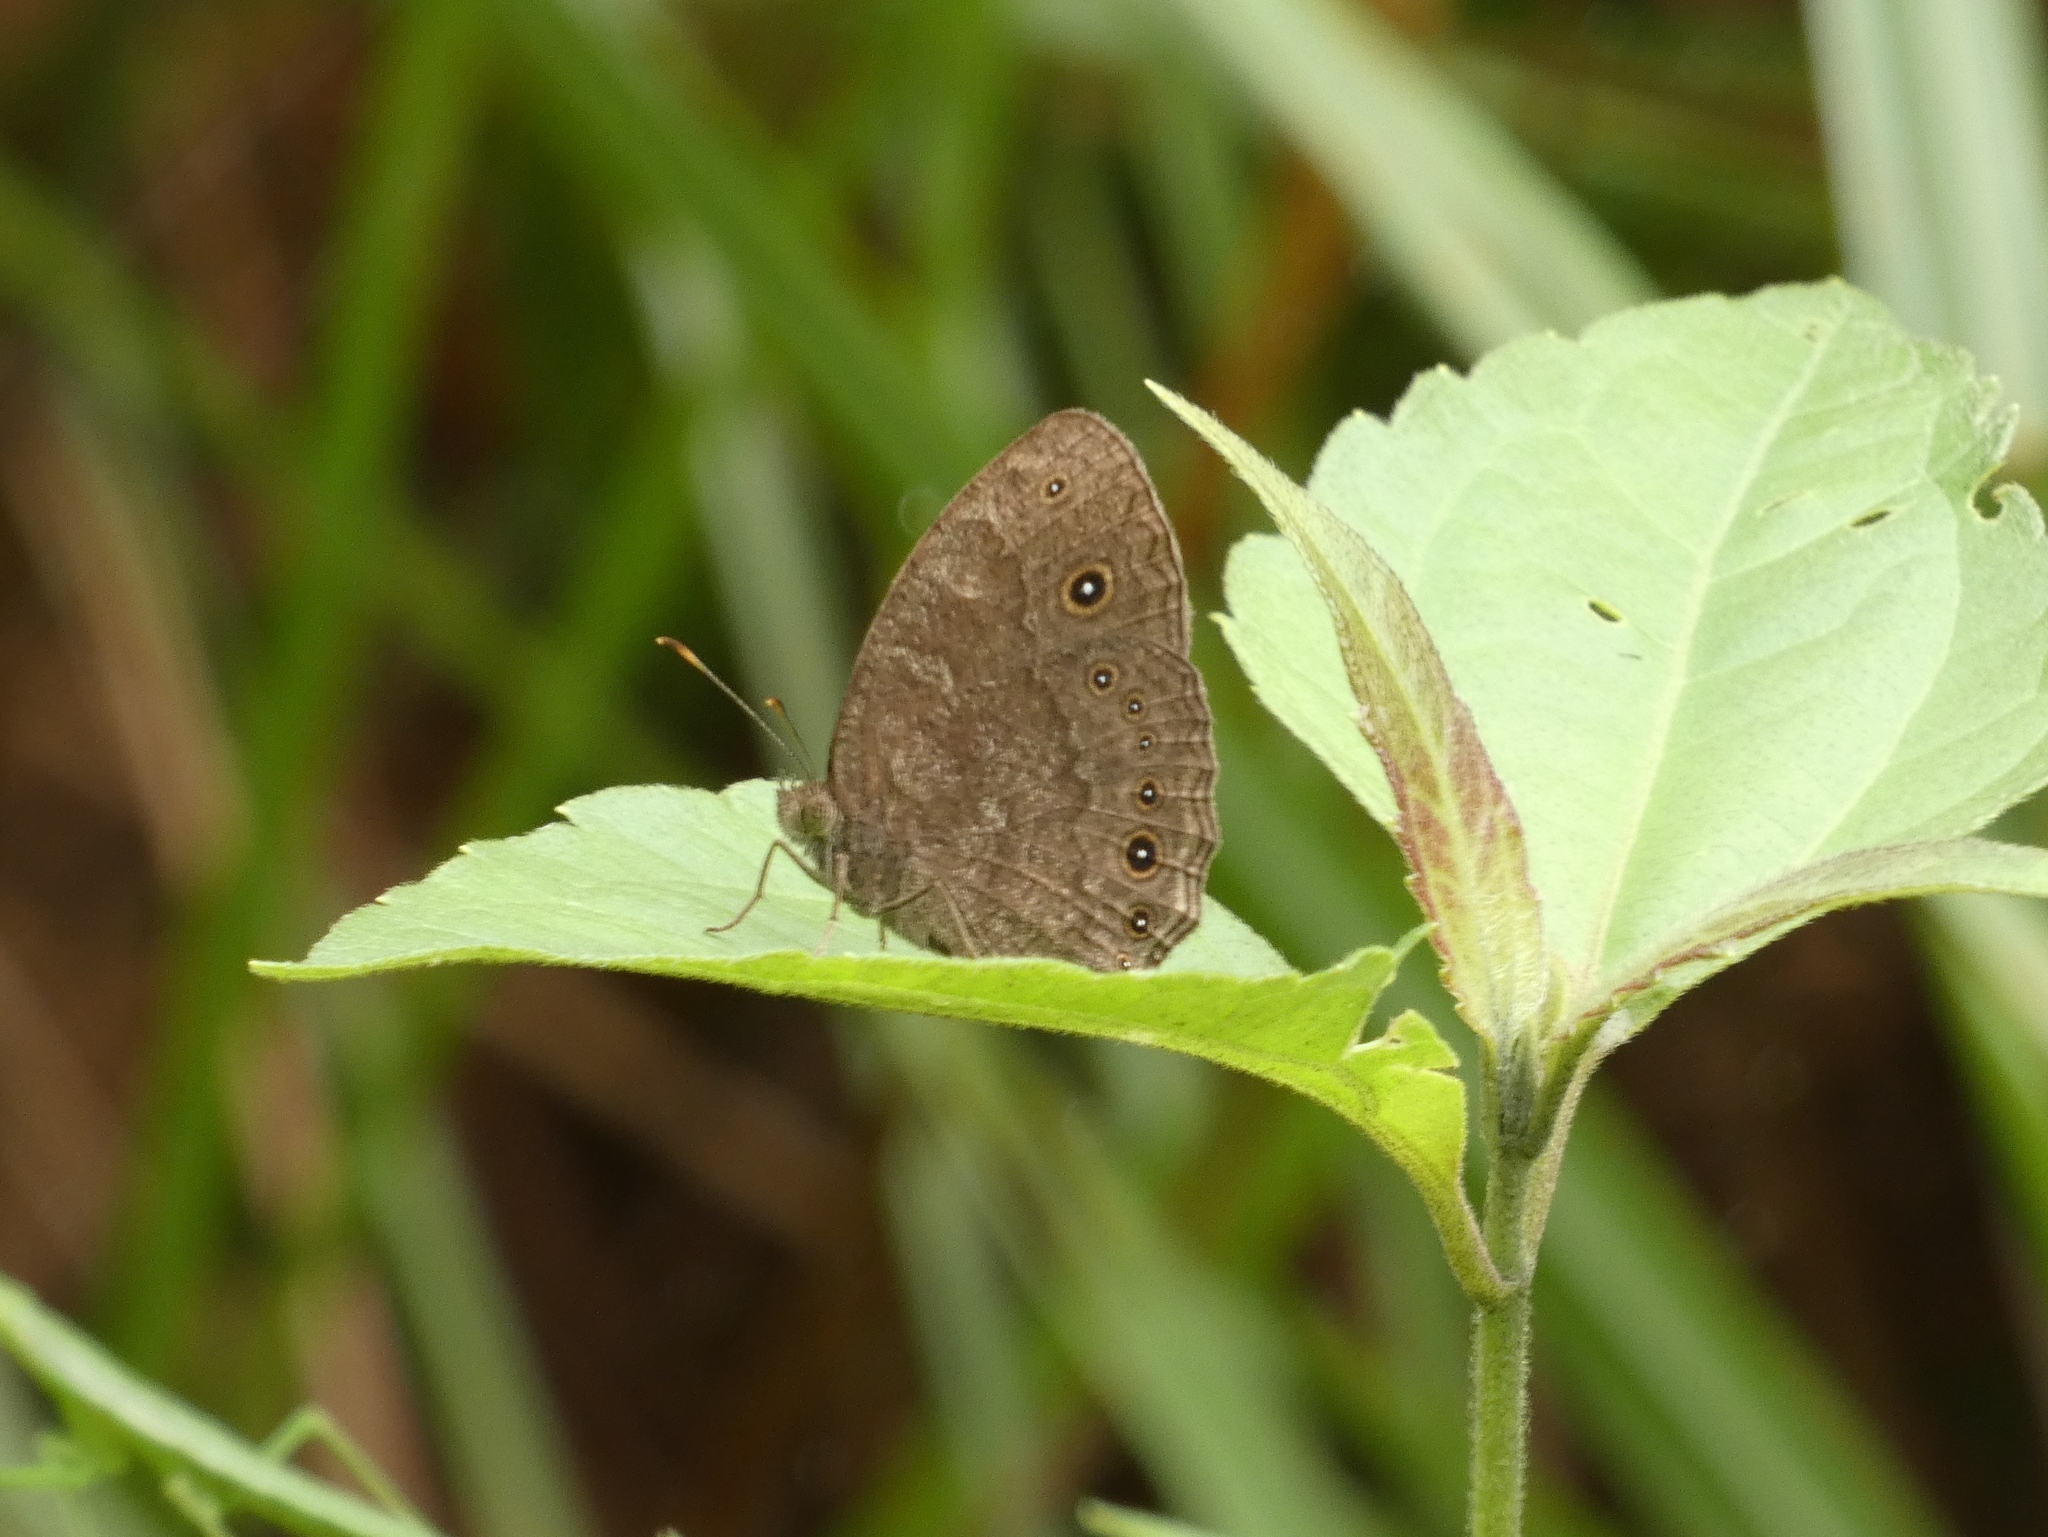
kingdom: Animalia
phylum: Arthropoda
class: Insecta
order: Lepidoptera
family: Nymphalidae
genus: Mycalesis
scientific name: Mycalesis vulgaris
